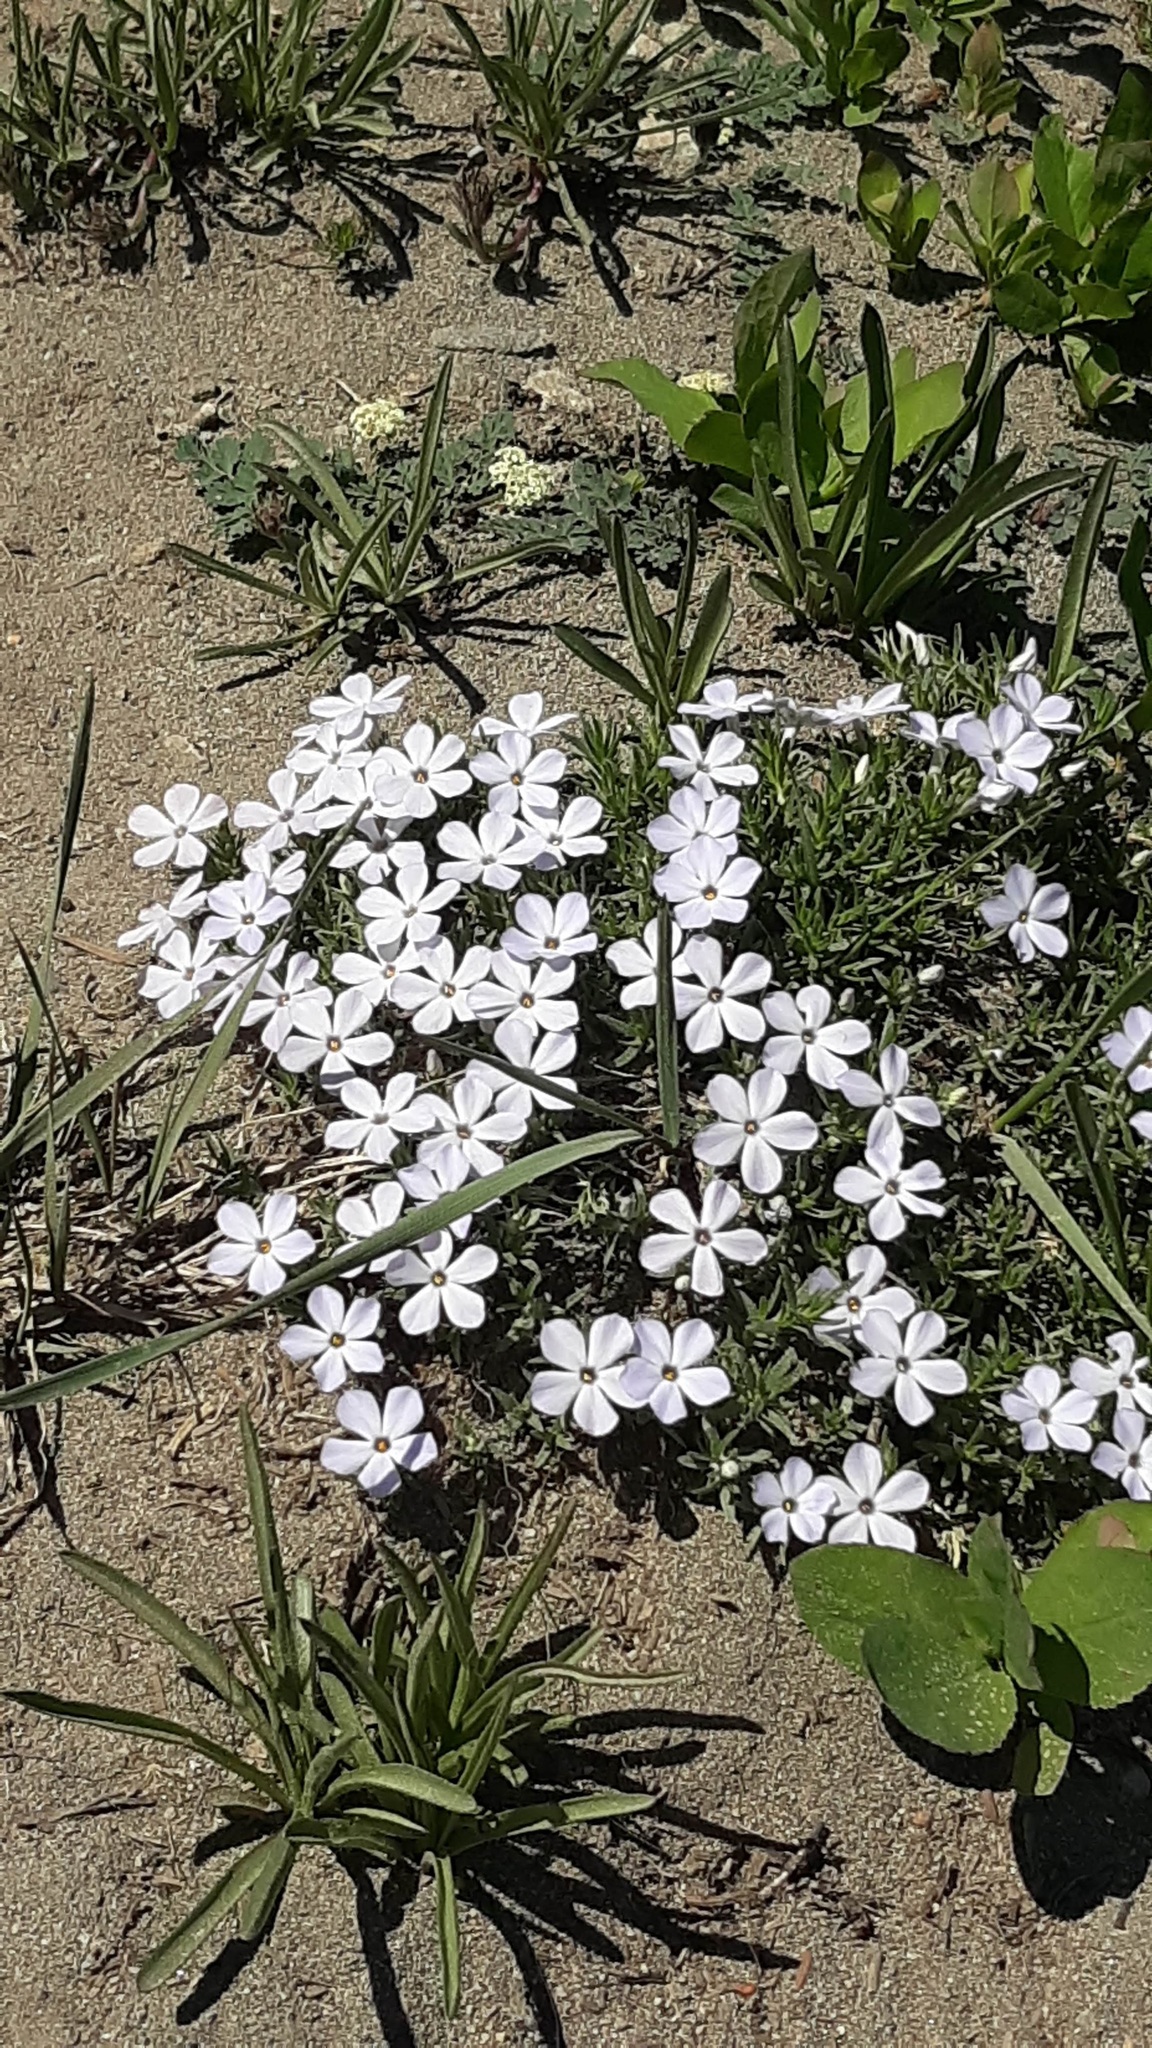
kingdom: Plantae
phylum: Tracheophyta
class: Magnoliopsida
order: Ericales
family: Polemoniaceae
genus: Phlox
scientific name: Phlox diffusa
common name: Mat phlox
